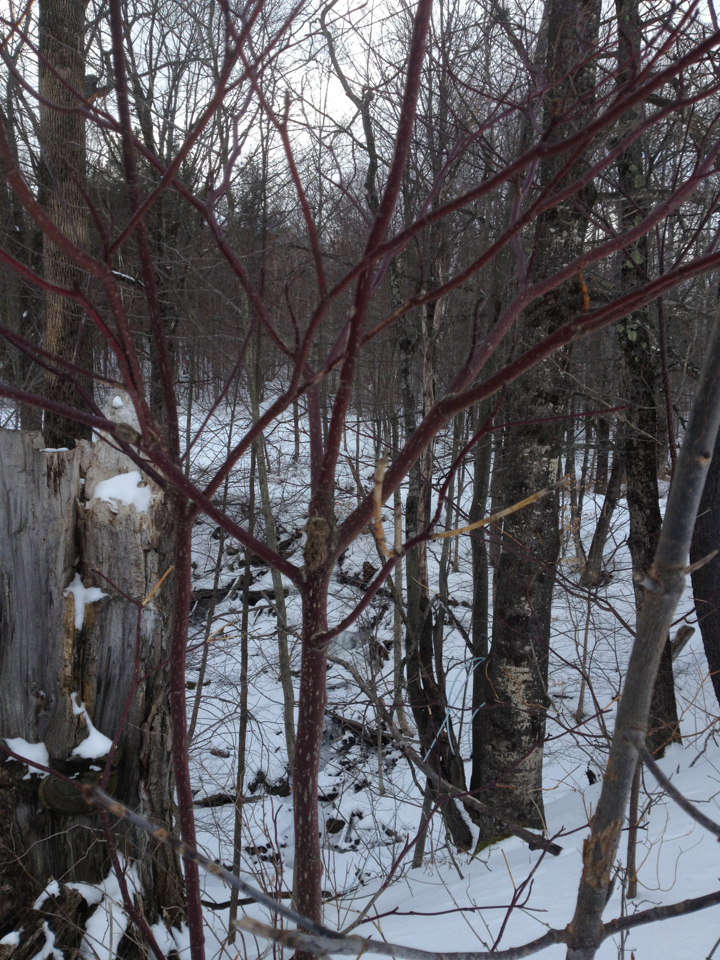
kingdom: Fungi
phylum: Ascomycota
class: Sordariomycetes
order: Diaporthales
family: Cryphonectriaceae
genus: Aurantioporthe
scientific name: Aurantioporthe corni
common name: Dogwood golden canker
